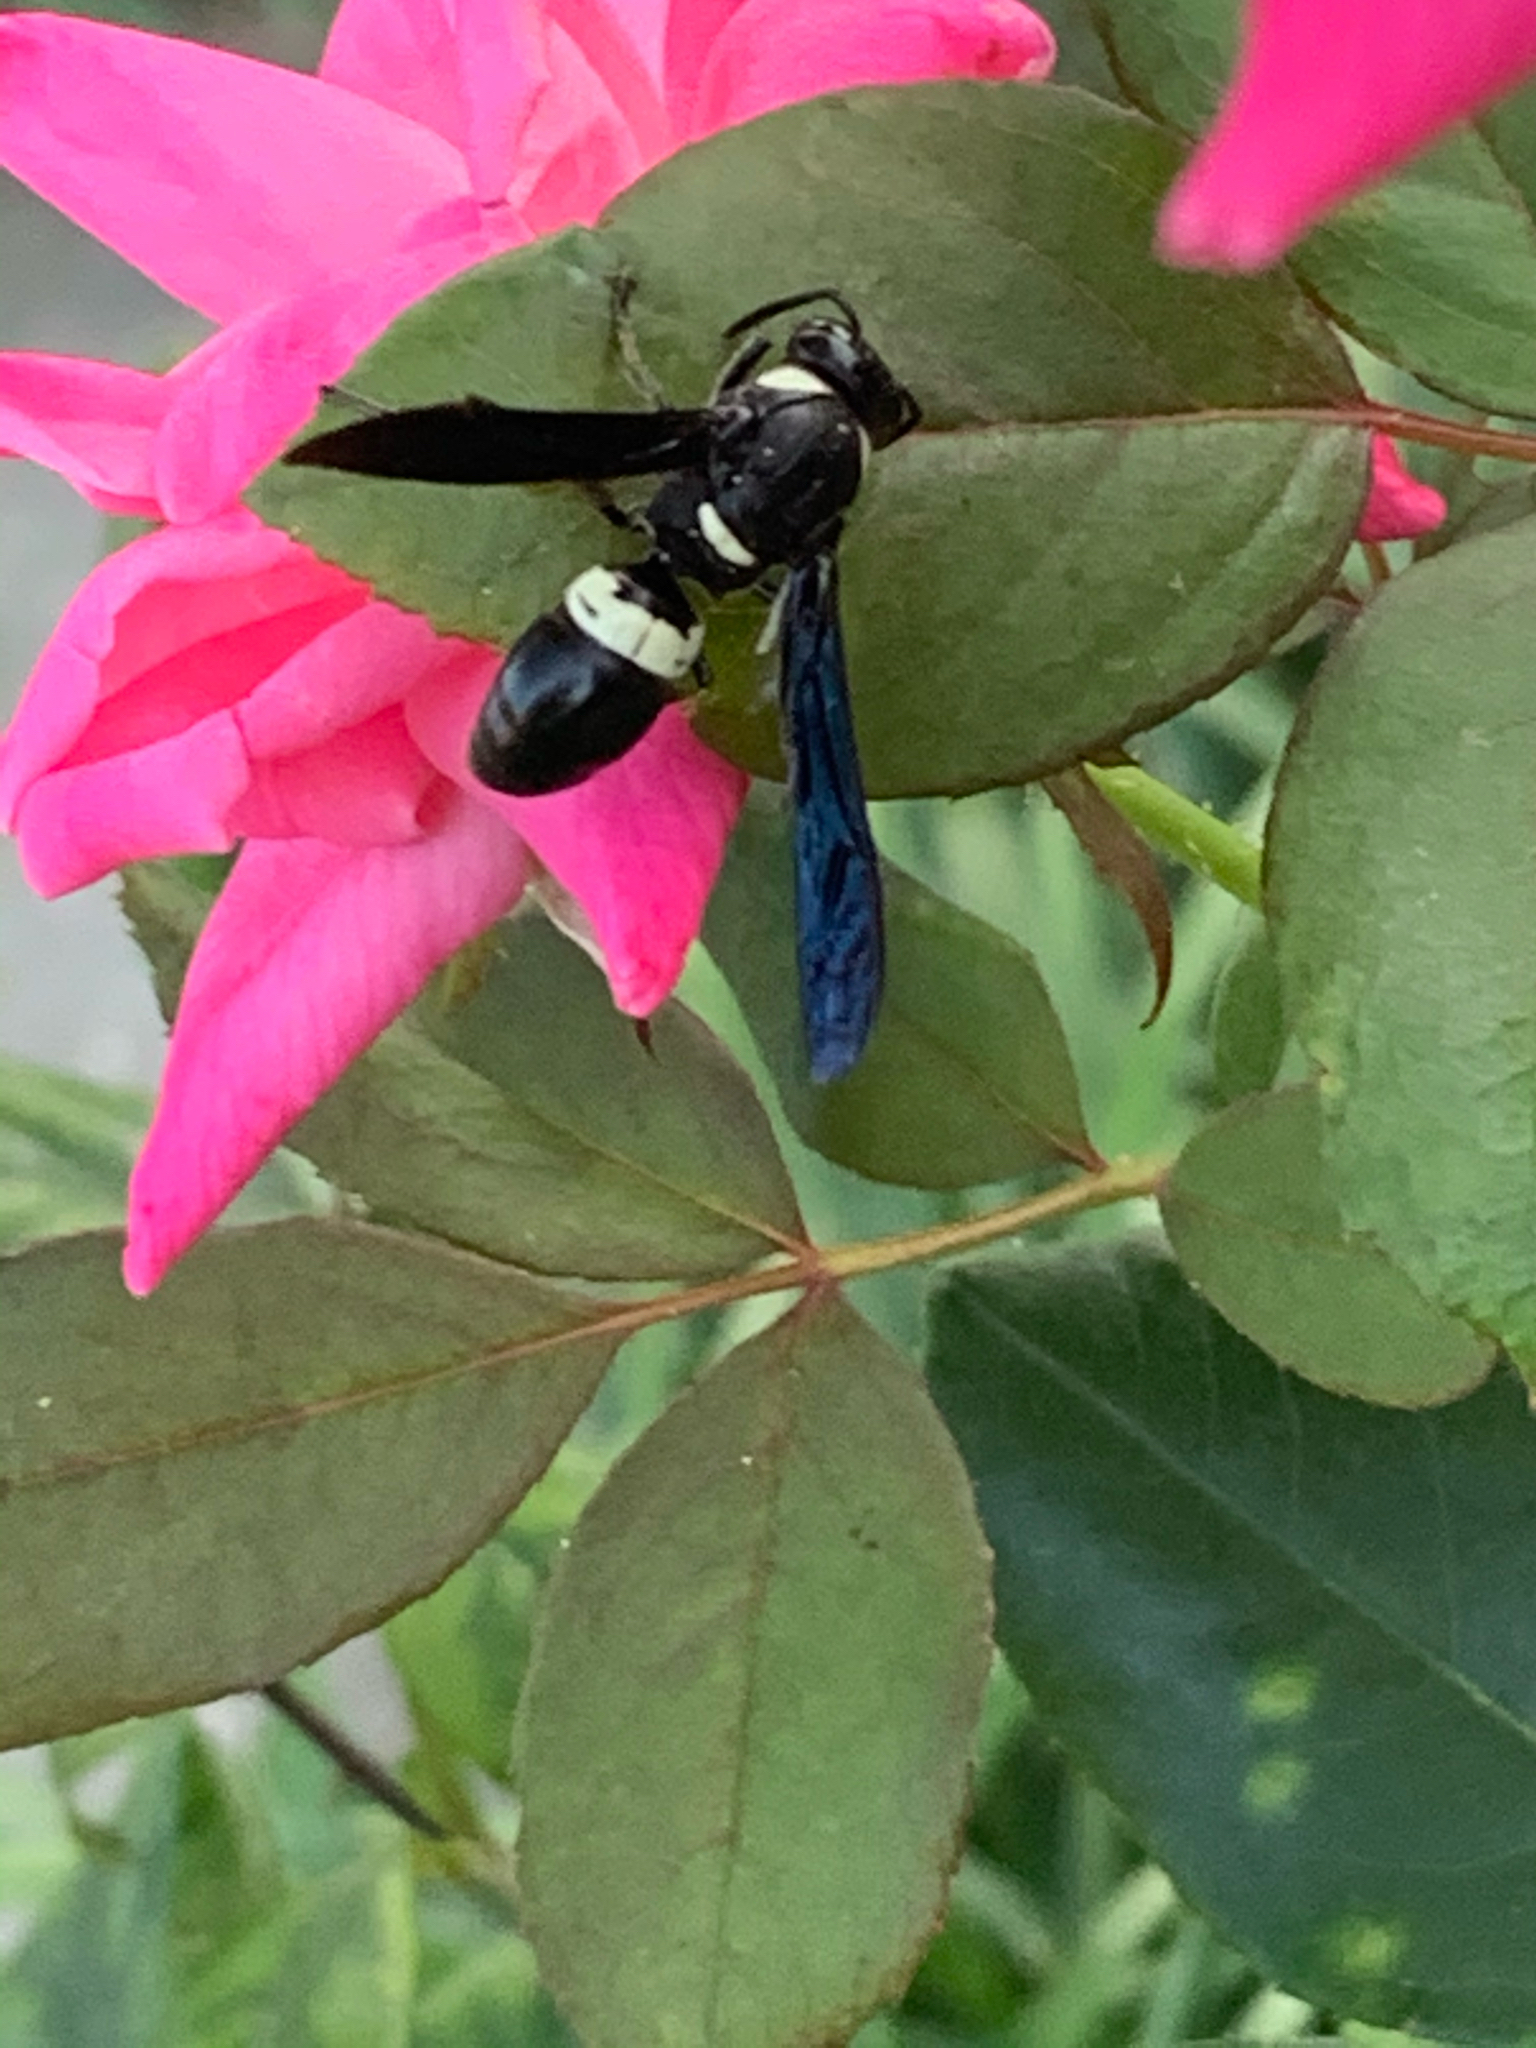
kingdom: Animalia
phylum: Arthropoda
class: Insecta
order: Hymenoptera
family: Eumenidae
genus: Monobia
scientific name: Monobia quadridens
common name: Four-toothed mason wasp
